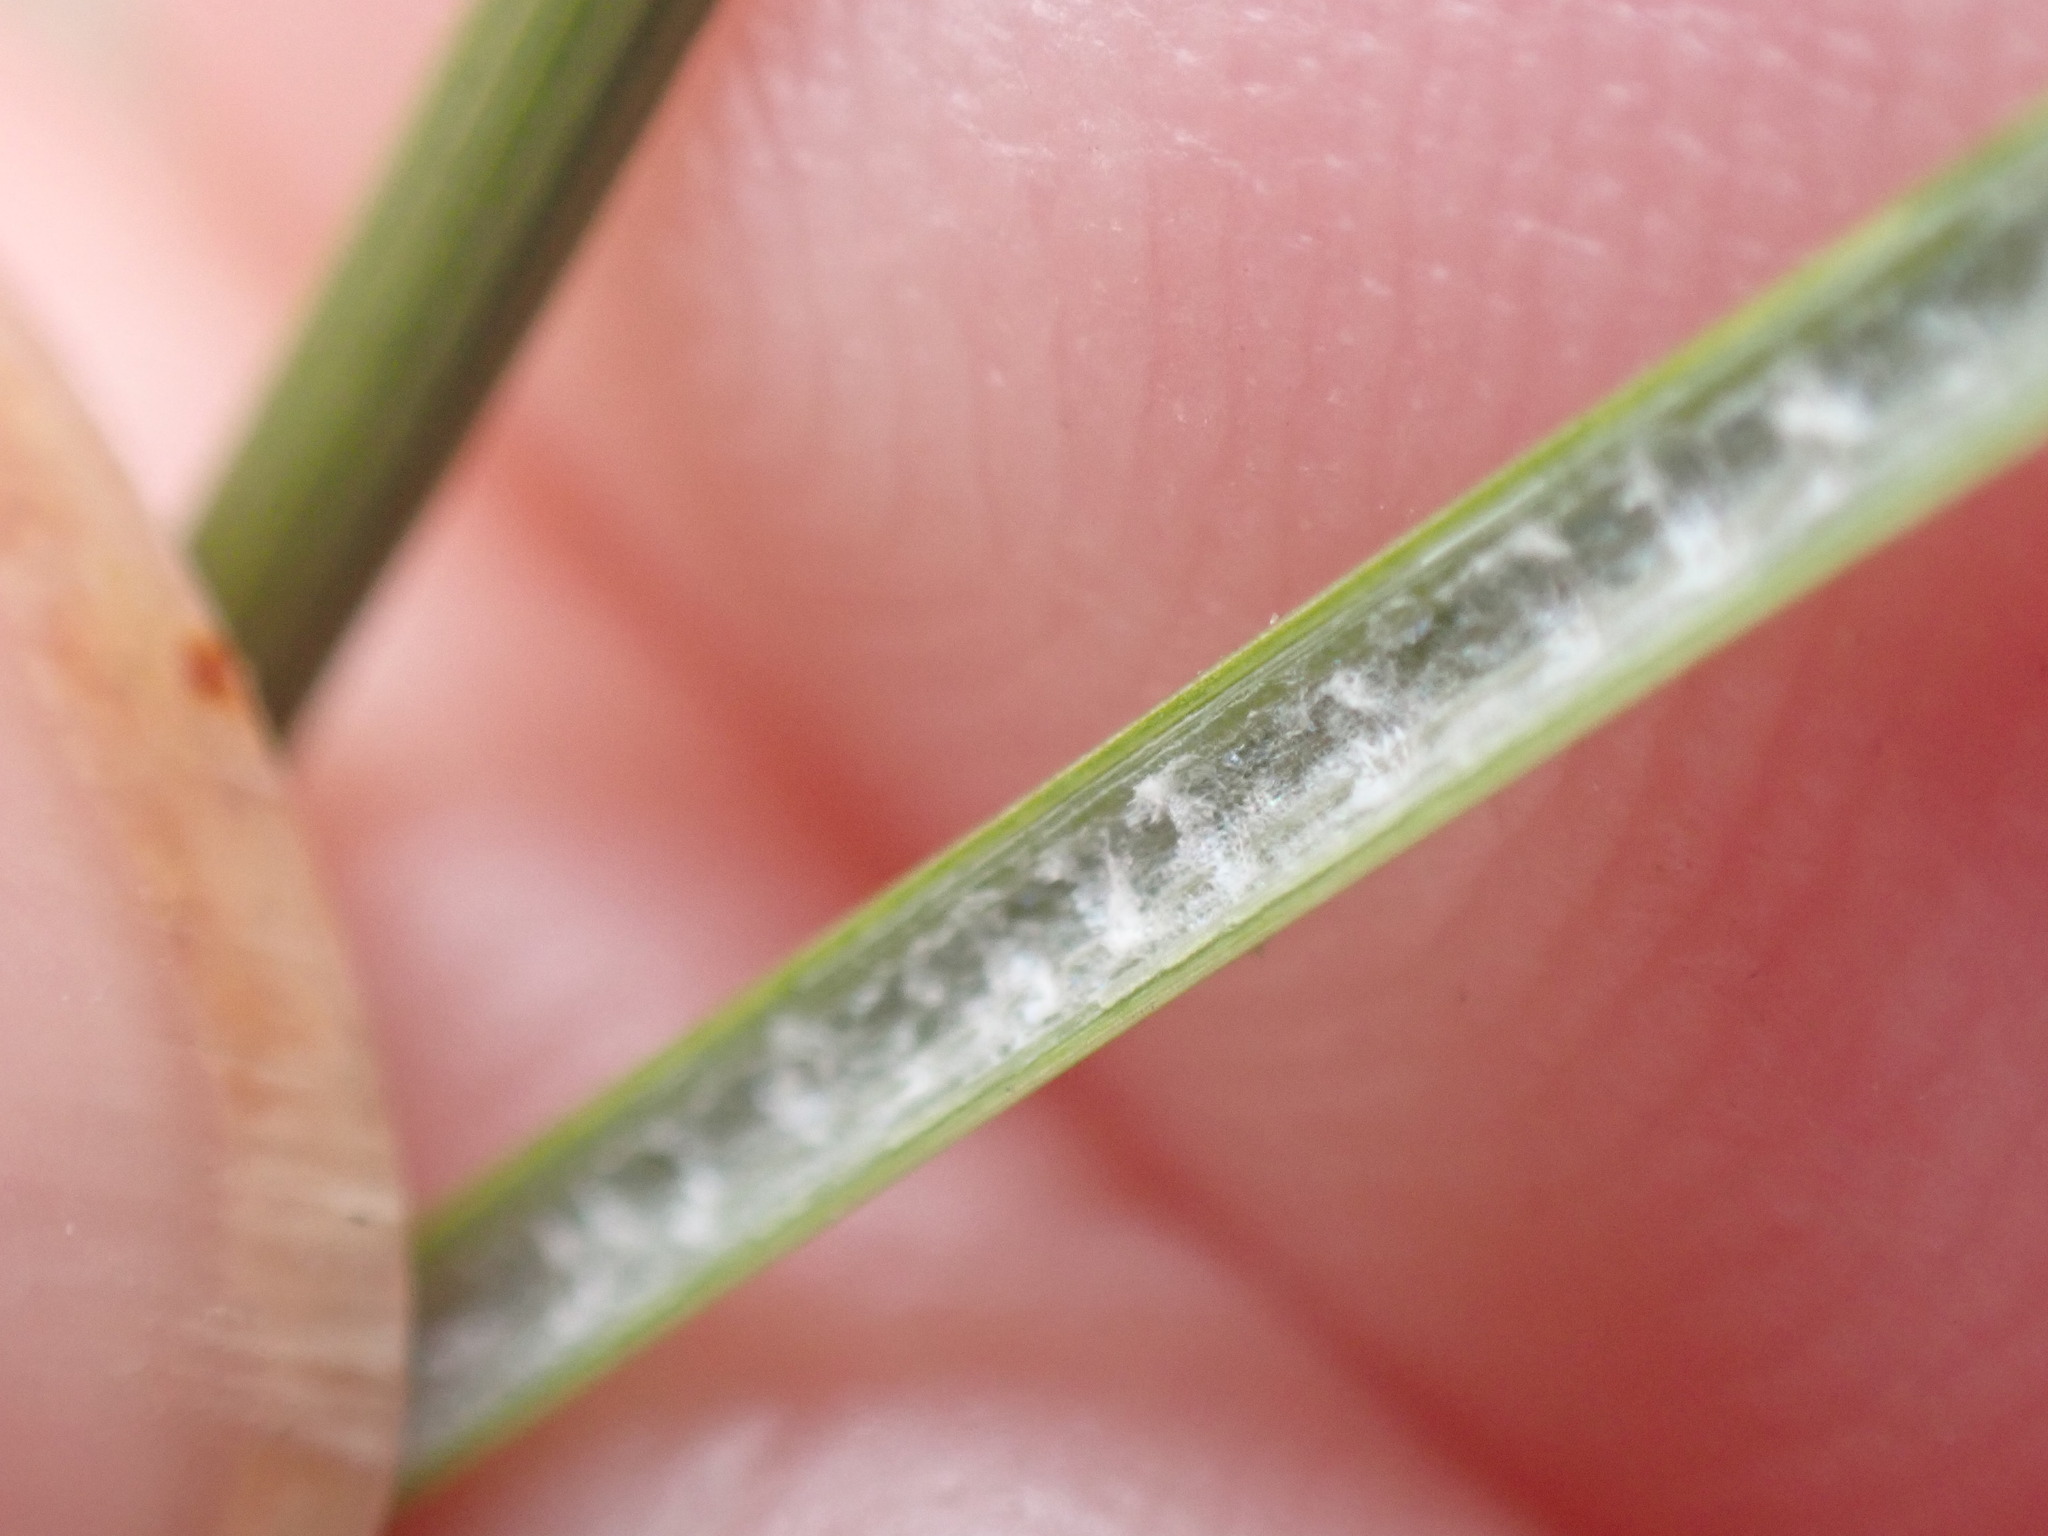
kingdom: Plantae
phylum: Tracheophyta
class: Liliopsida
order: Poales
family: Juncaceae
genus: Juncus
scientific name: Juncus inflexus
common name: Hard rush
